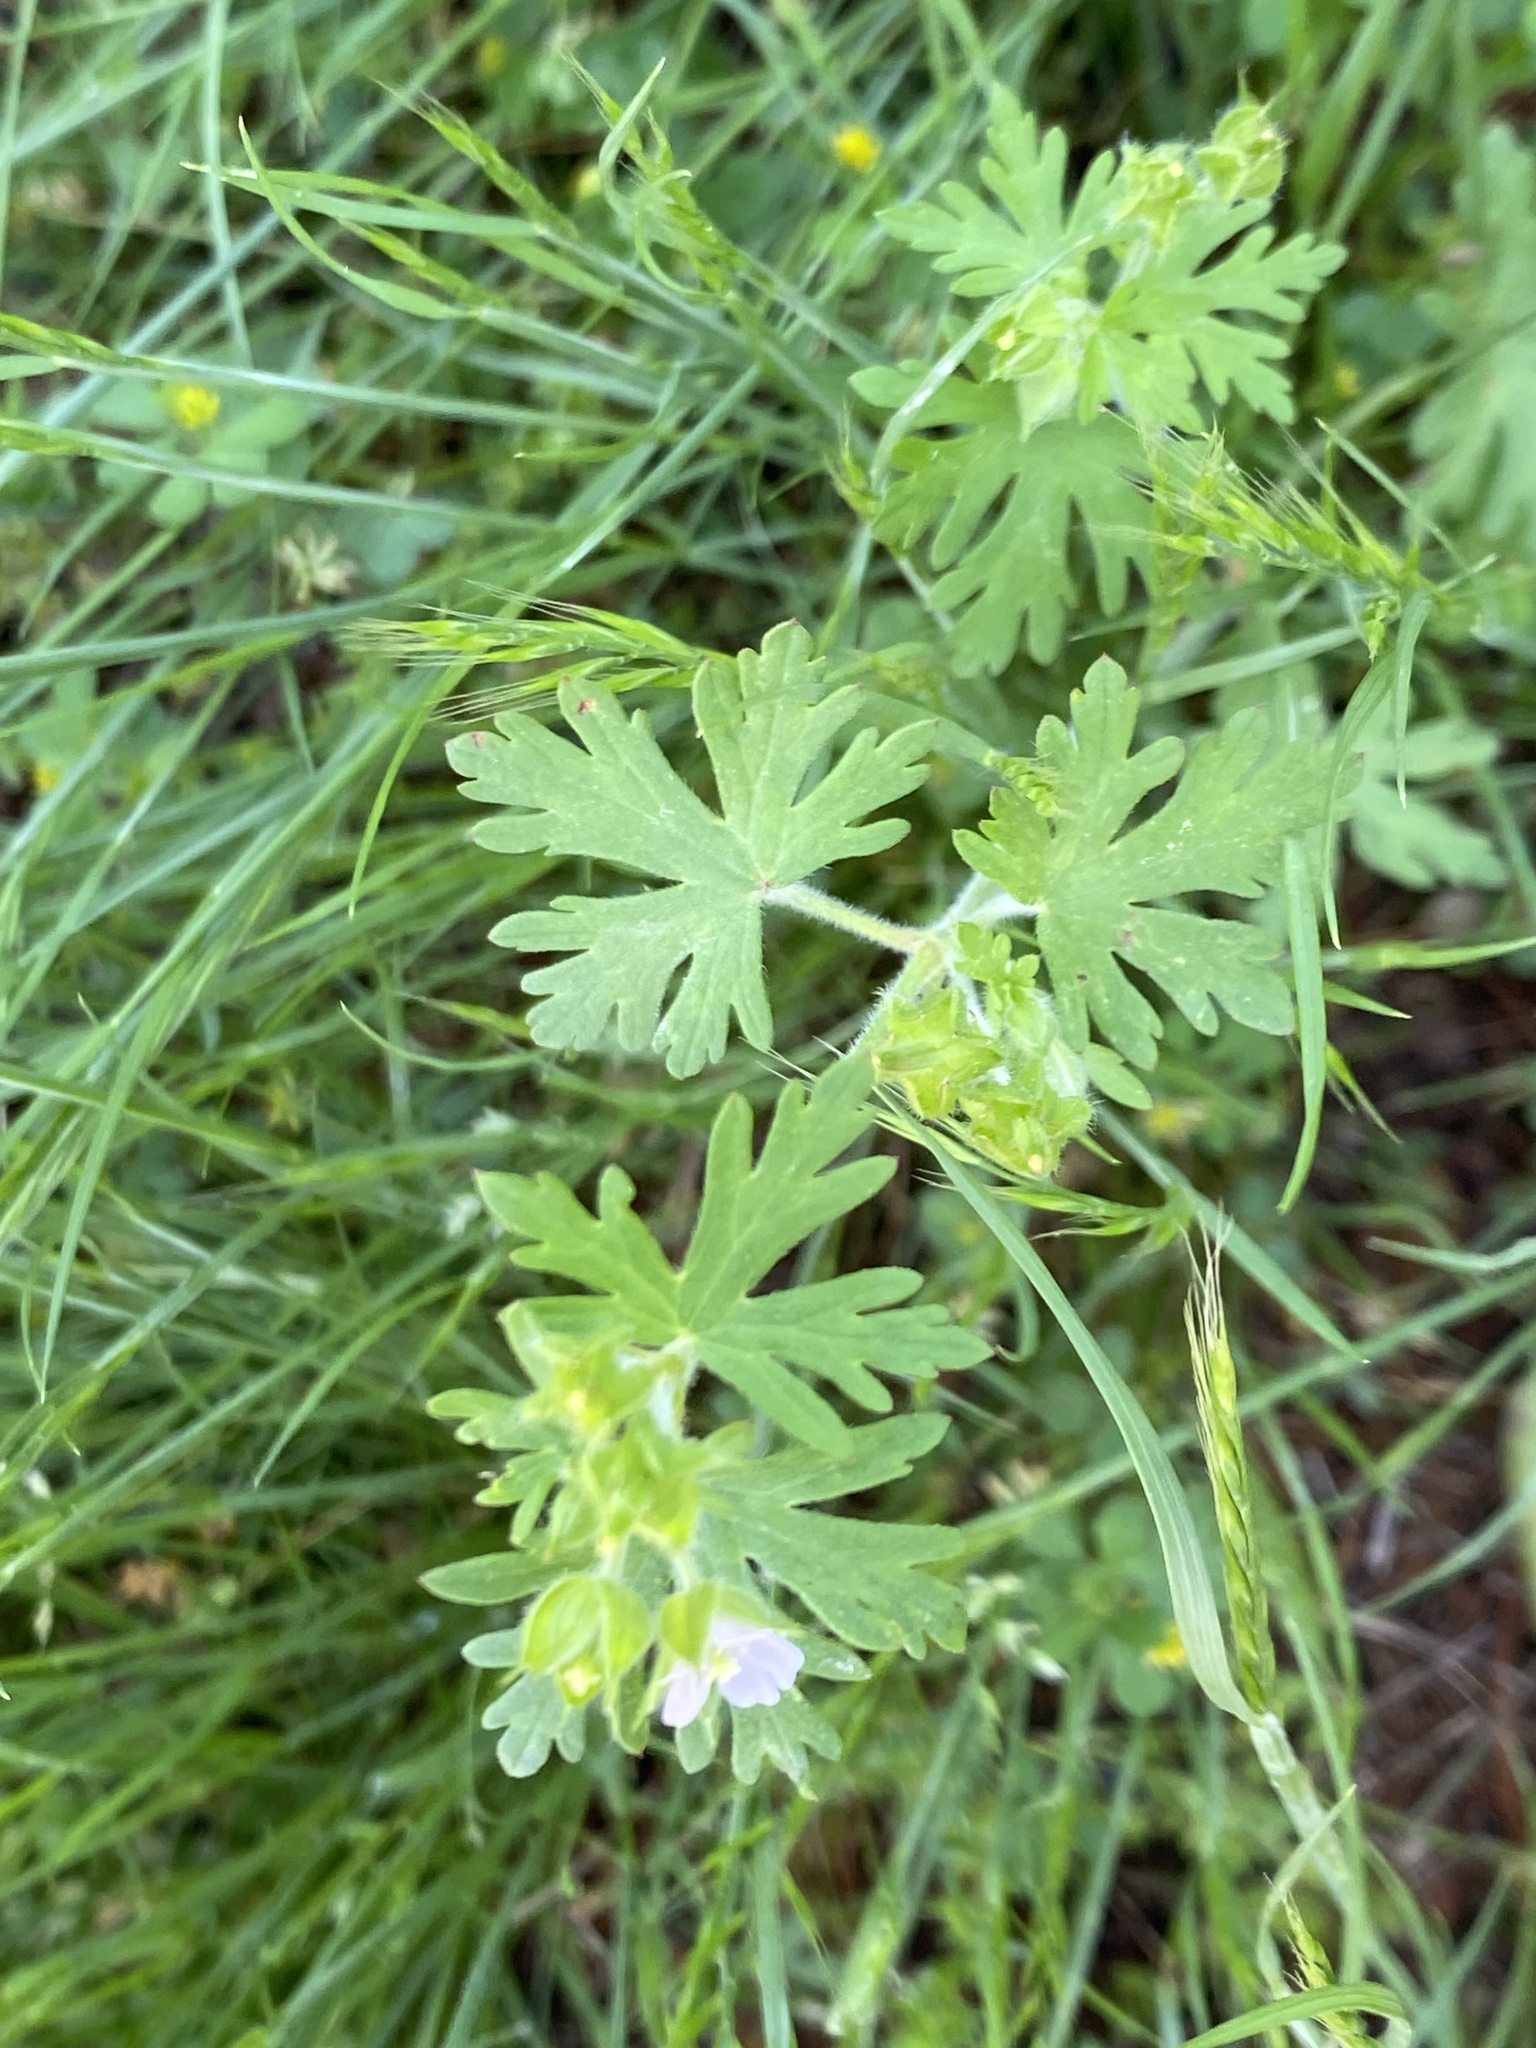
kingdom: Plantae
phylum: Tracheophyta
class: Magnoliopsida
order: Geraniales
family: Geraniaceae
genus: Geranium
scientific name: Geranium carolinianum
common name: Carolina crane's-bill
